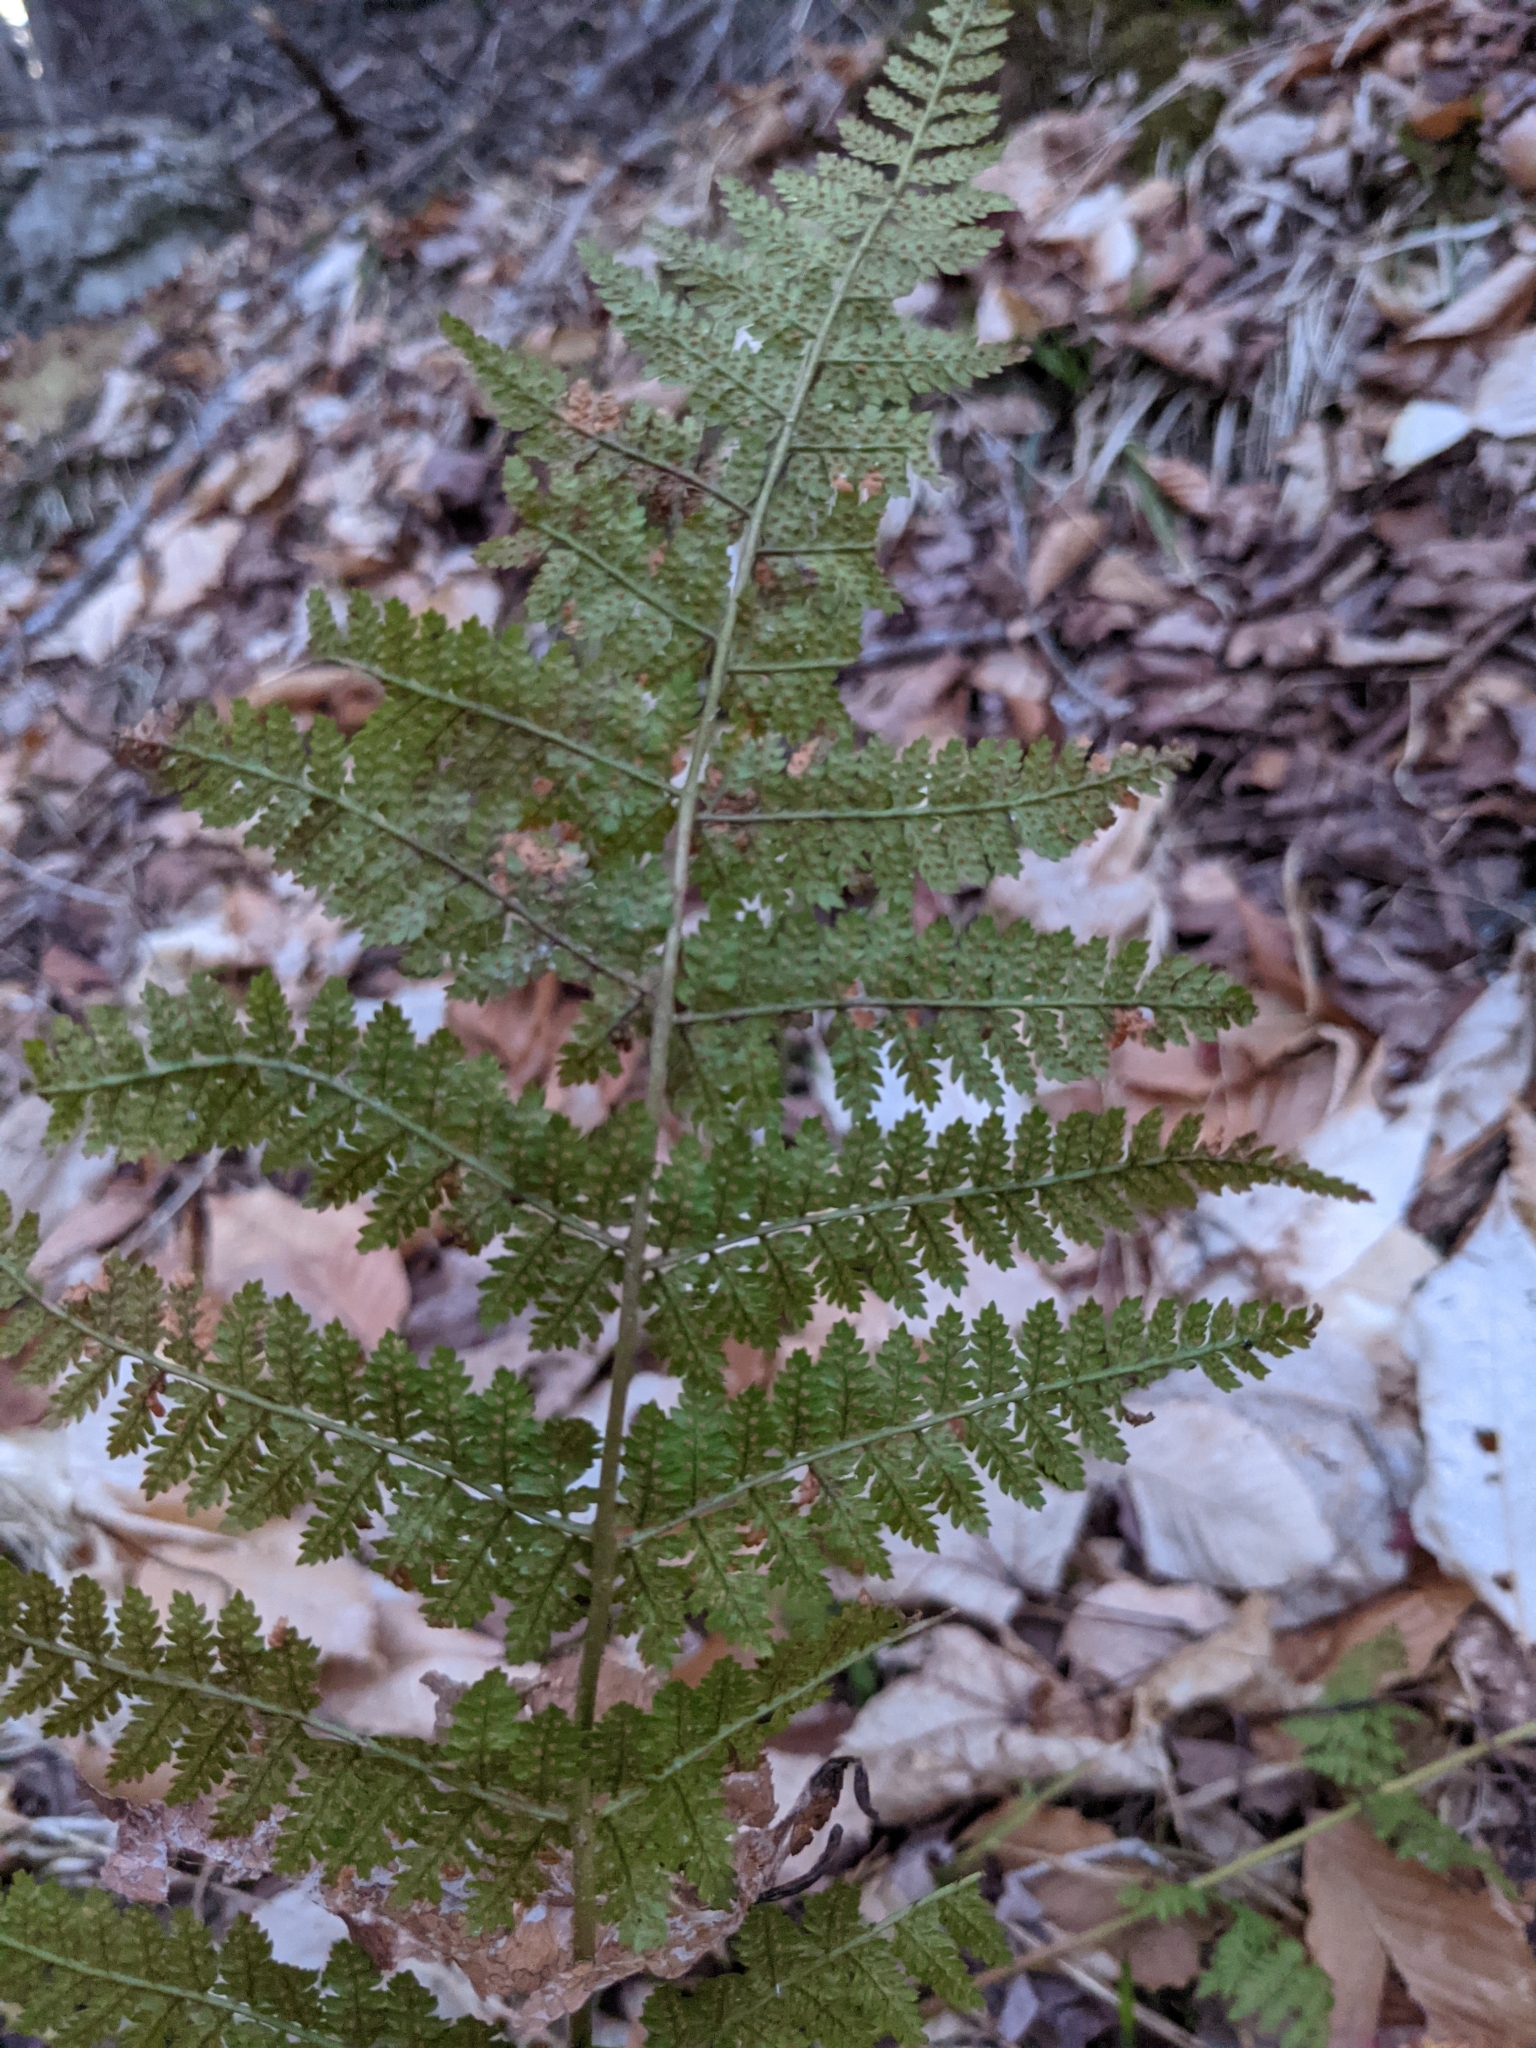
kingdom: Plantae
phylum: Tracheophyta
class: Polypodiopsida
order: Polypodiales
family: Dryopteridaceae
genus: Dryopteris
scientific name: Dryopteris intermedia
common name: Evergreen wood fern
